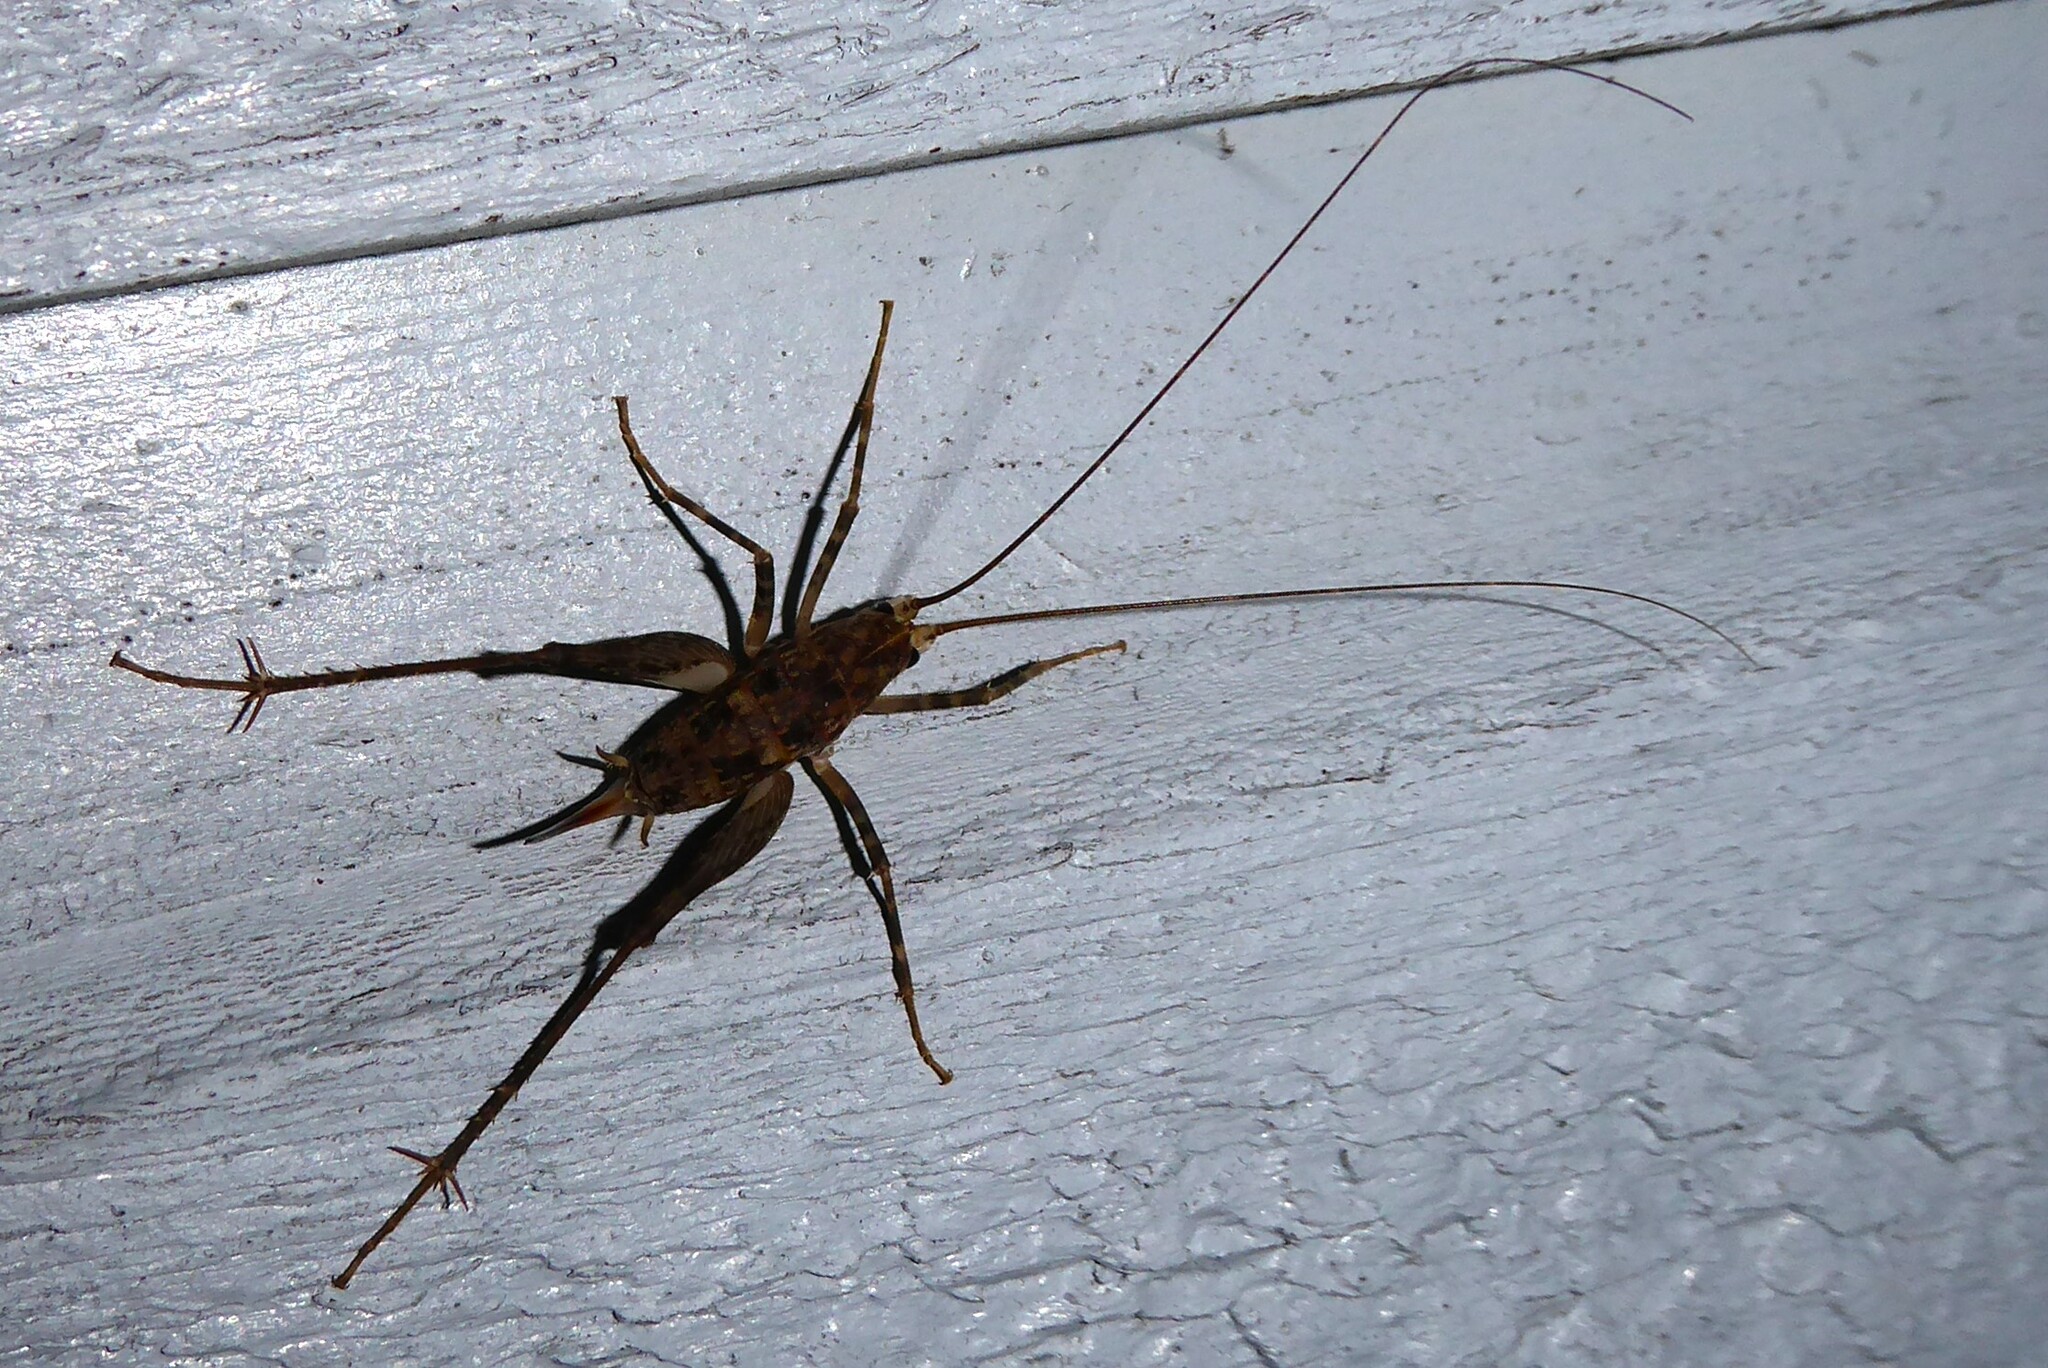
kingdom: Animalia
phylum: Arthropoda
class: Insecta
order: Orthoptera
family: Rhaphidophoridae
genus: Pleioplectron
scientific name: Pleioplectron simplex
